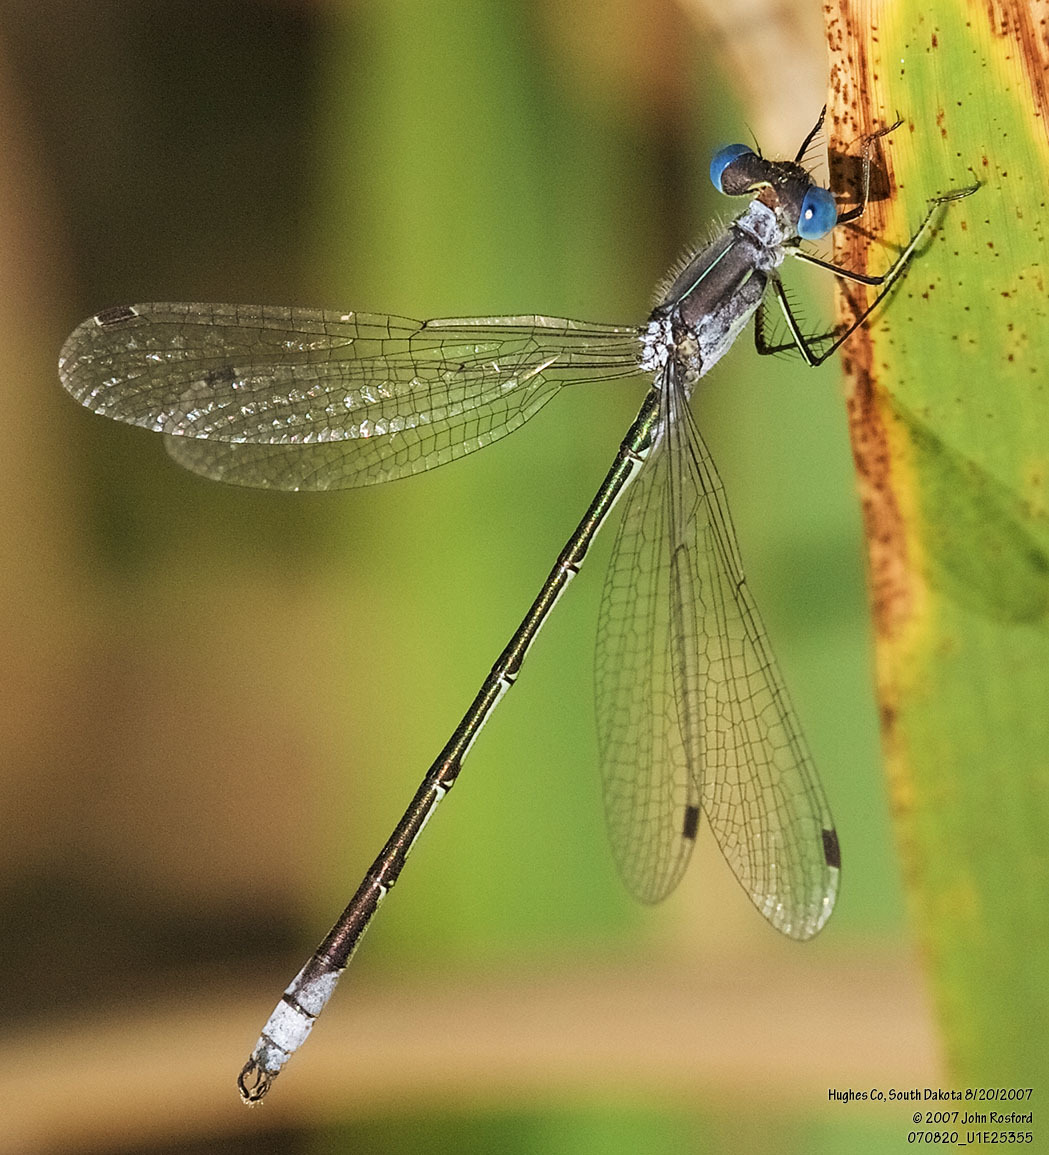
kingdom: Animalia
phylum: Arthropoda
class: Insecta
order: Odonata
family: Lestidae
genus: Lestes
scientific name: Lestes unguiculatus
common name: Lyre-tipped spreadwing
